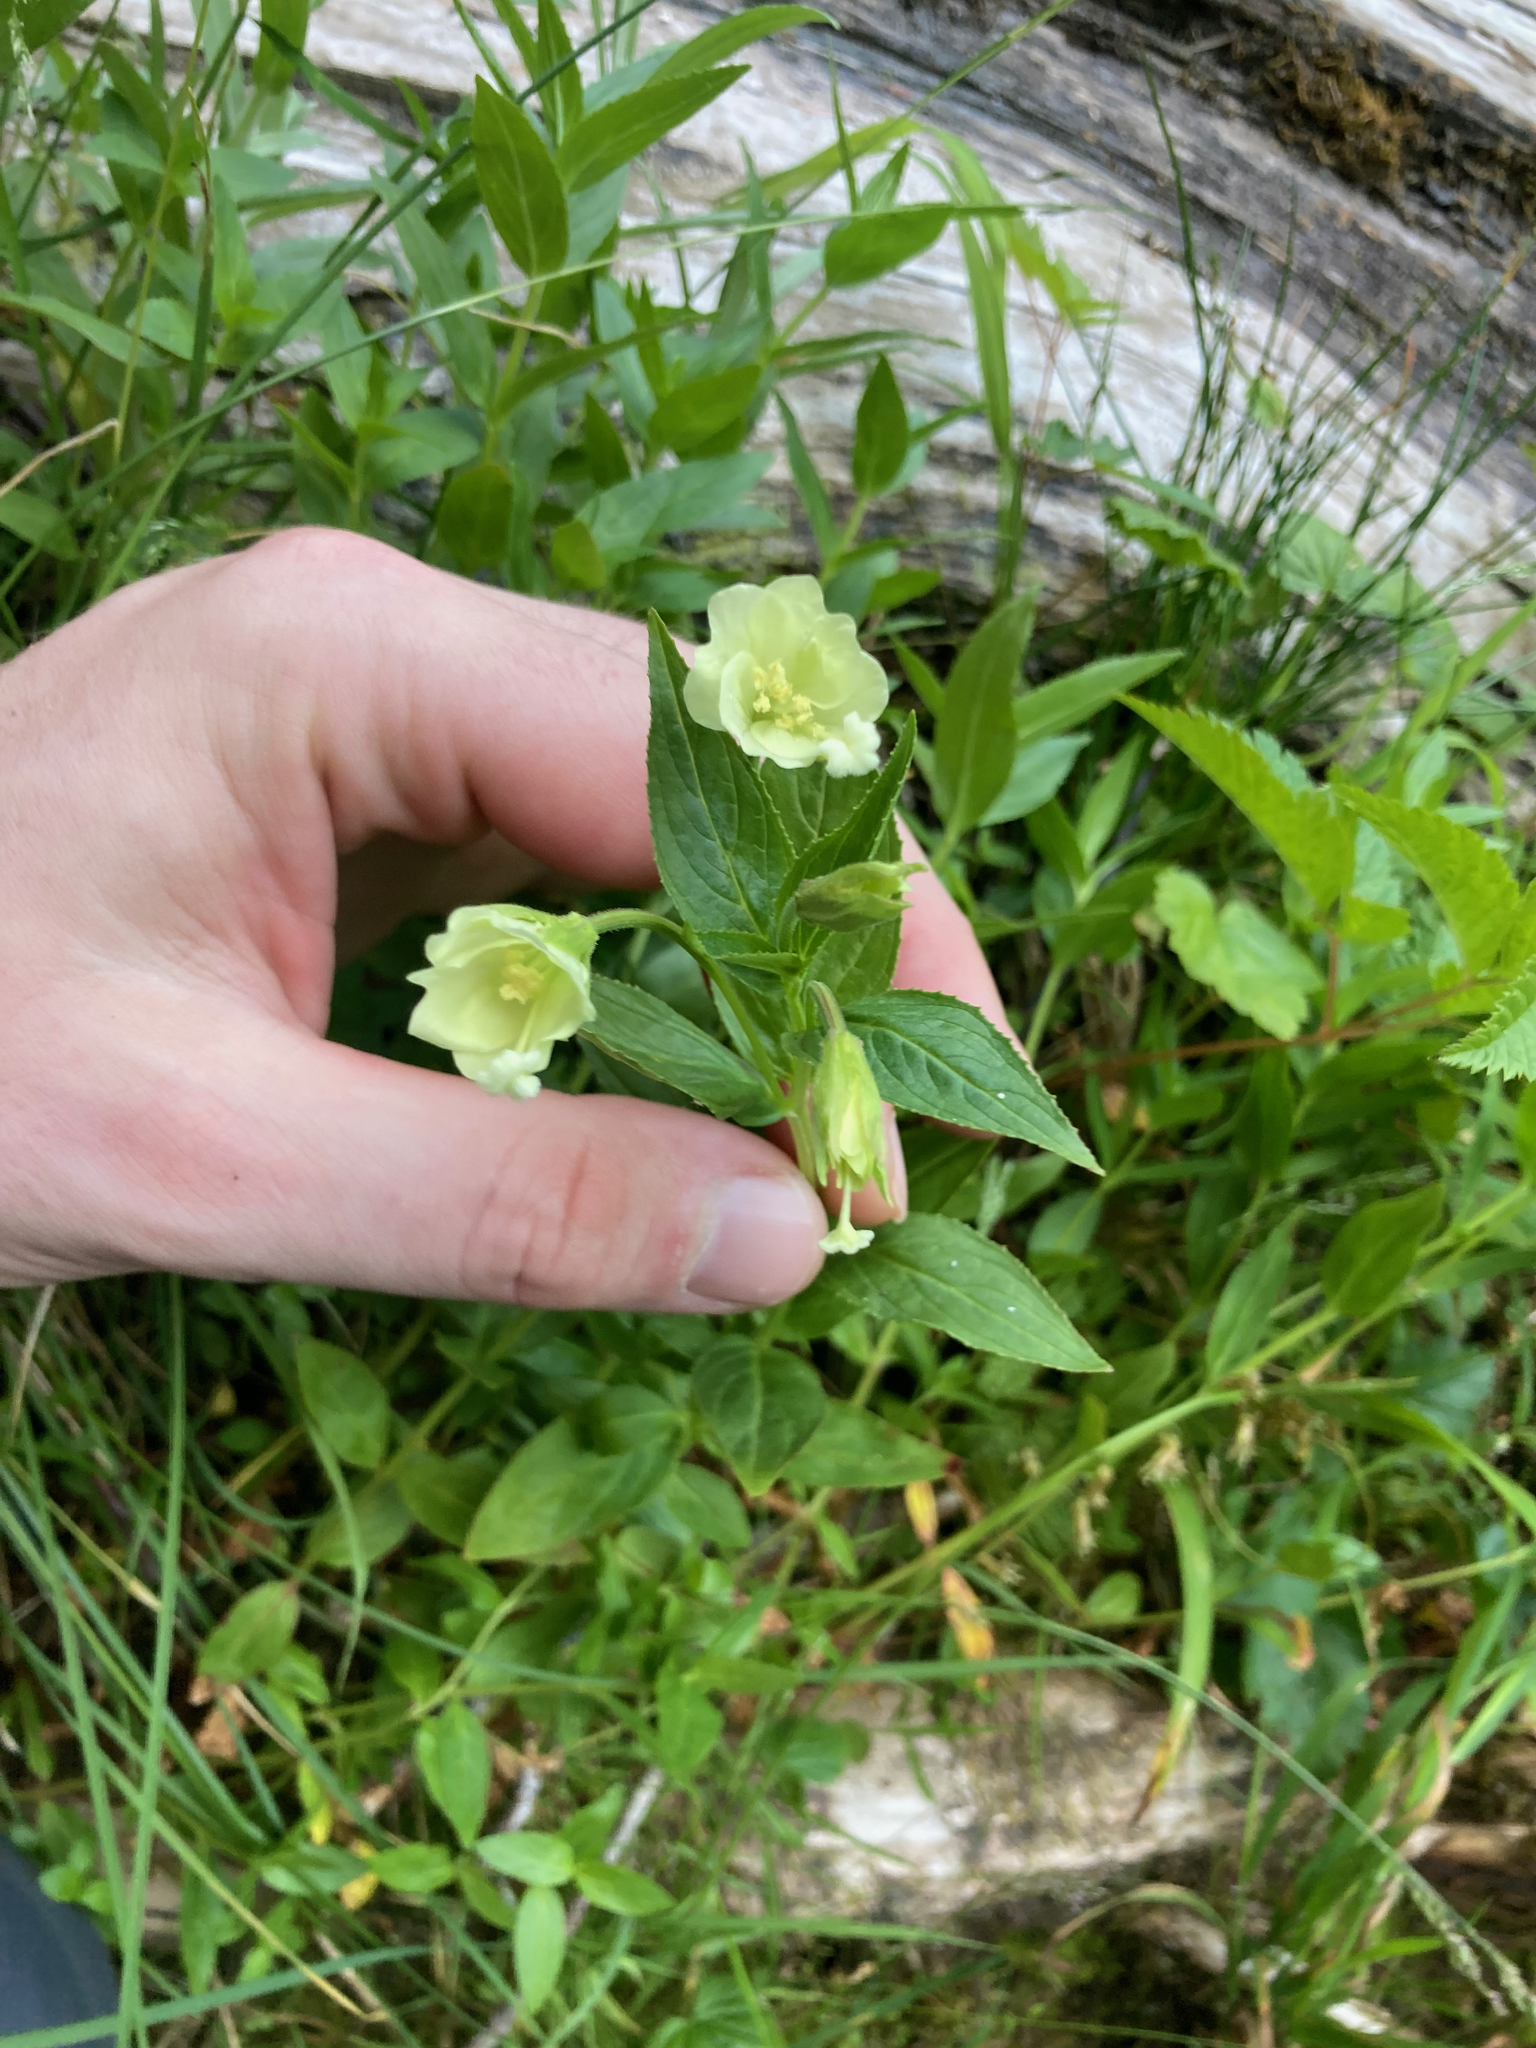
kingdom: Plantae
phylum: Tracheophyta
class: Magnoliopsida
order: Myrtales
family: Onagraceae
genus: Epilobium
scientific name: Epilobium luteum
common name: Yellow willowherb
